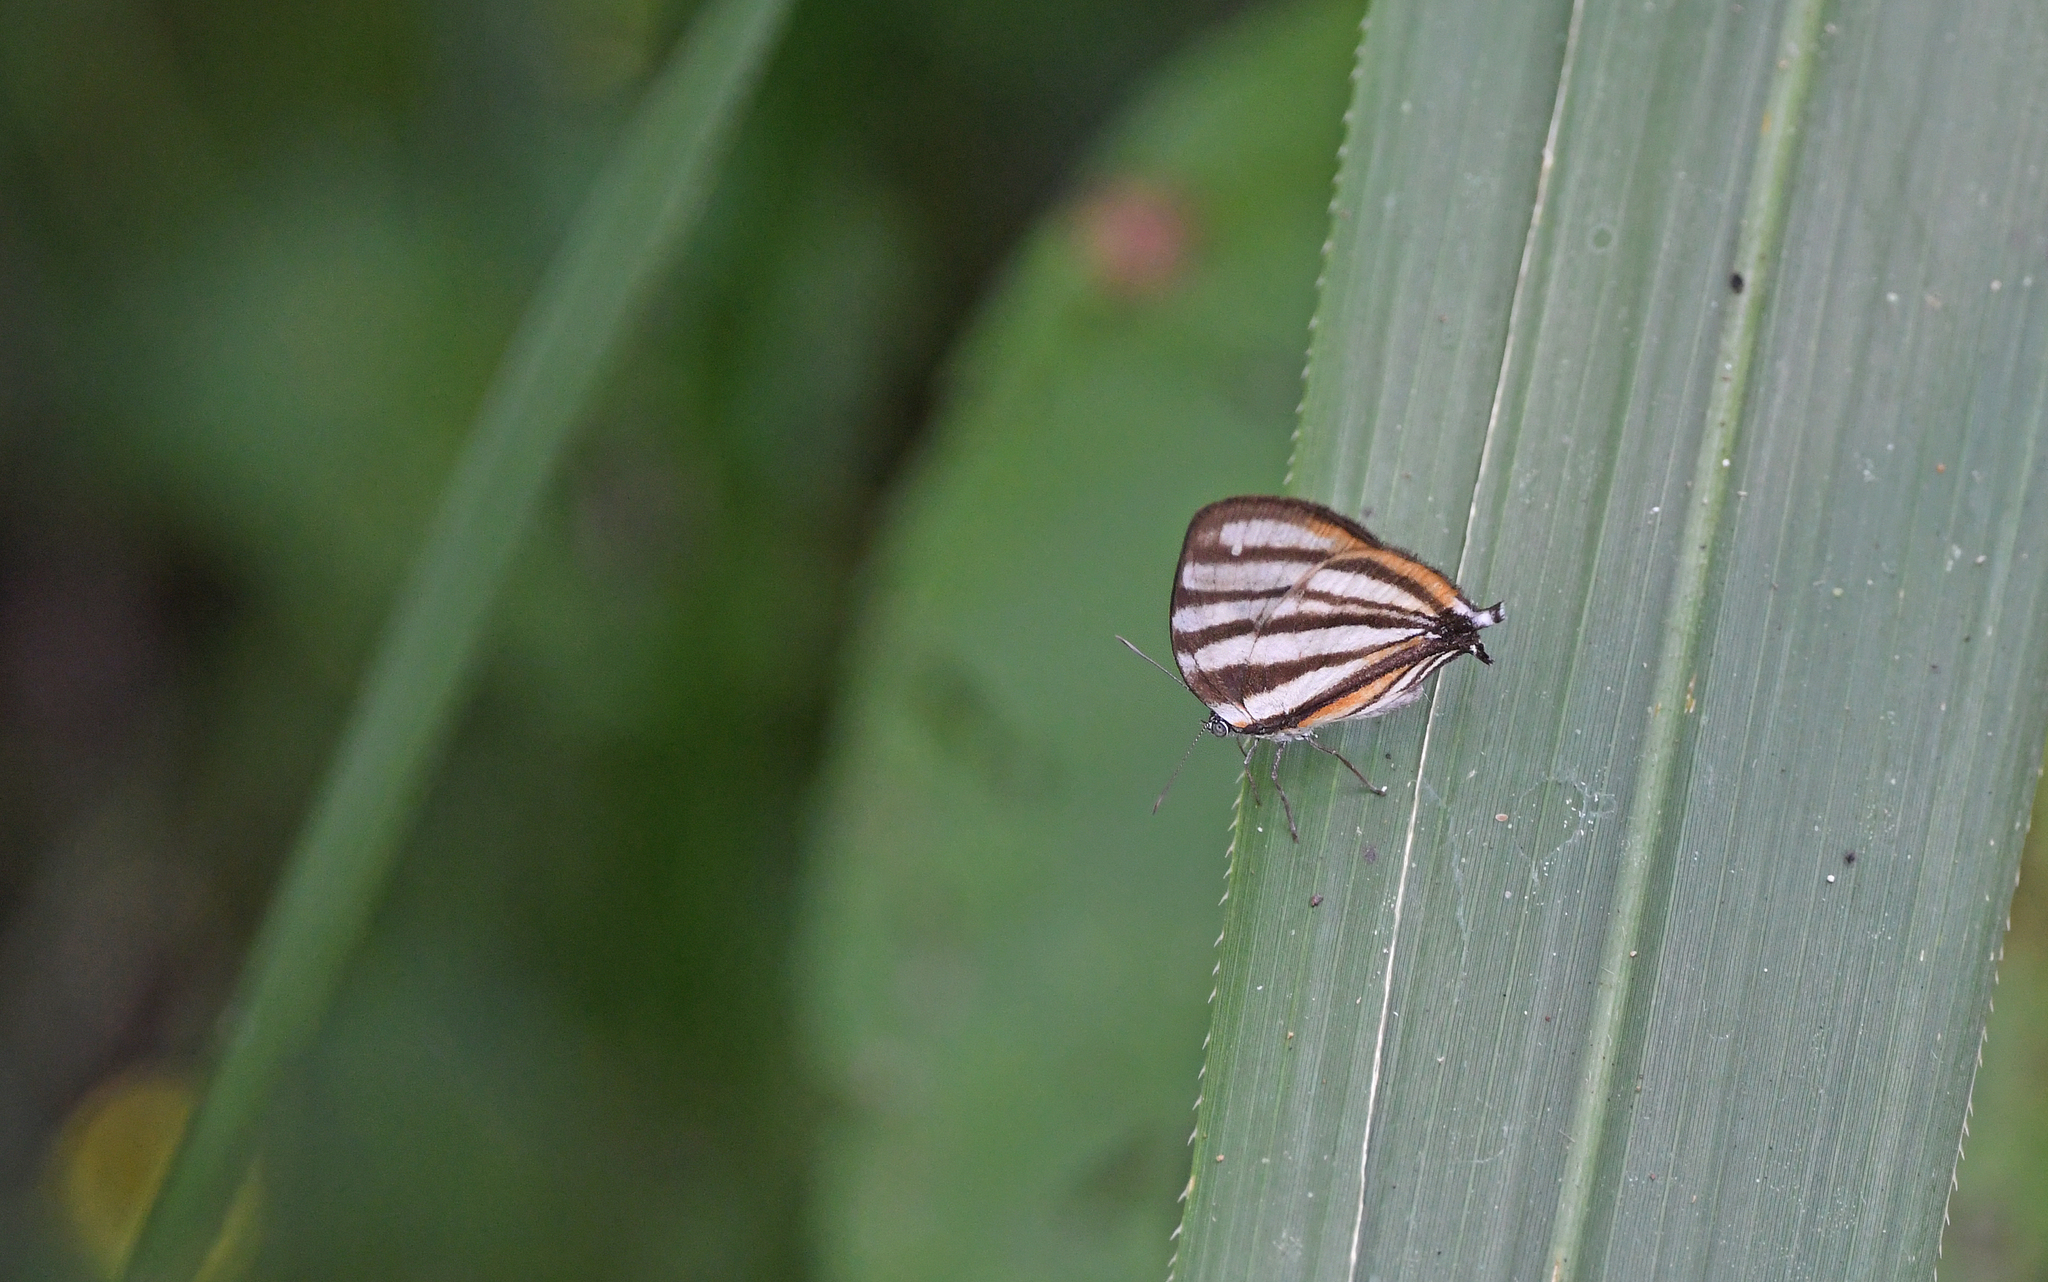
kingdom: Animalia
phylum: Arthropoda
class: Insecta
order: Lepidoptera
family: Lycaenidae
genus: Arawacus
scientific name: Arawacus separata
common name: Separated stripestreak
